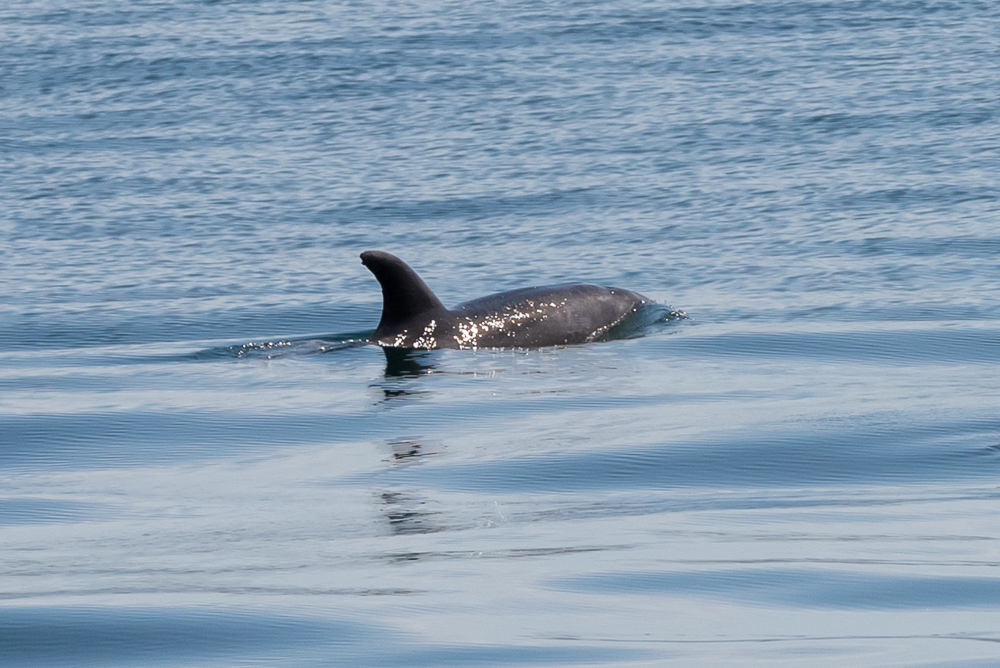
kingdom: Animalia
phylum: Chordata
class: Mammalia
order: Cetacea
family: Delphinidae
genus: Tursiops
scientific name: Tursiops truncatus
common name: Bottlenose dolphin
